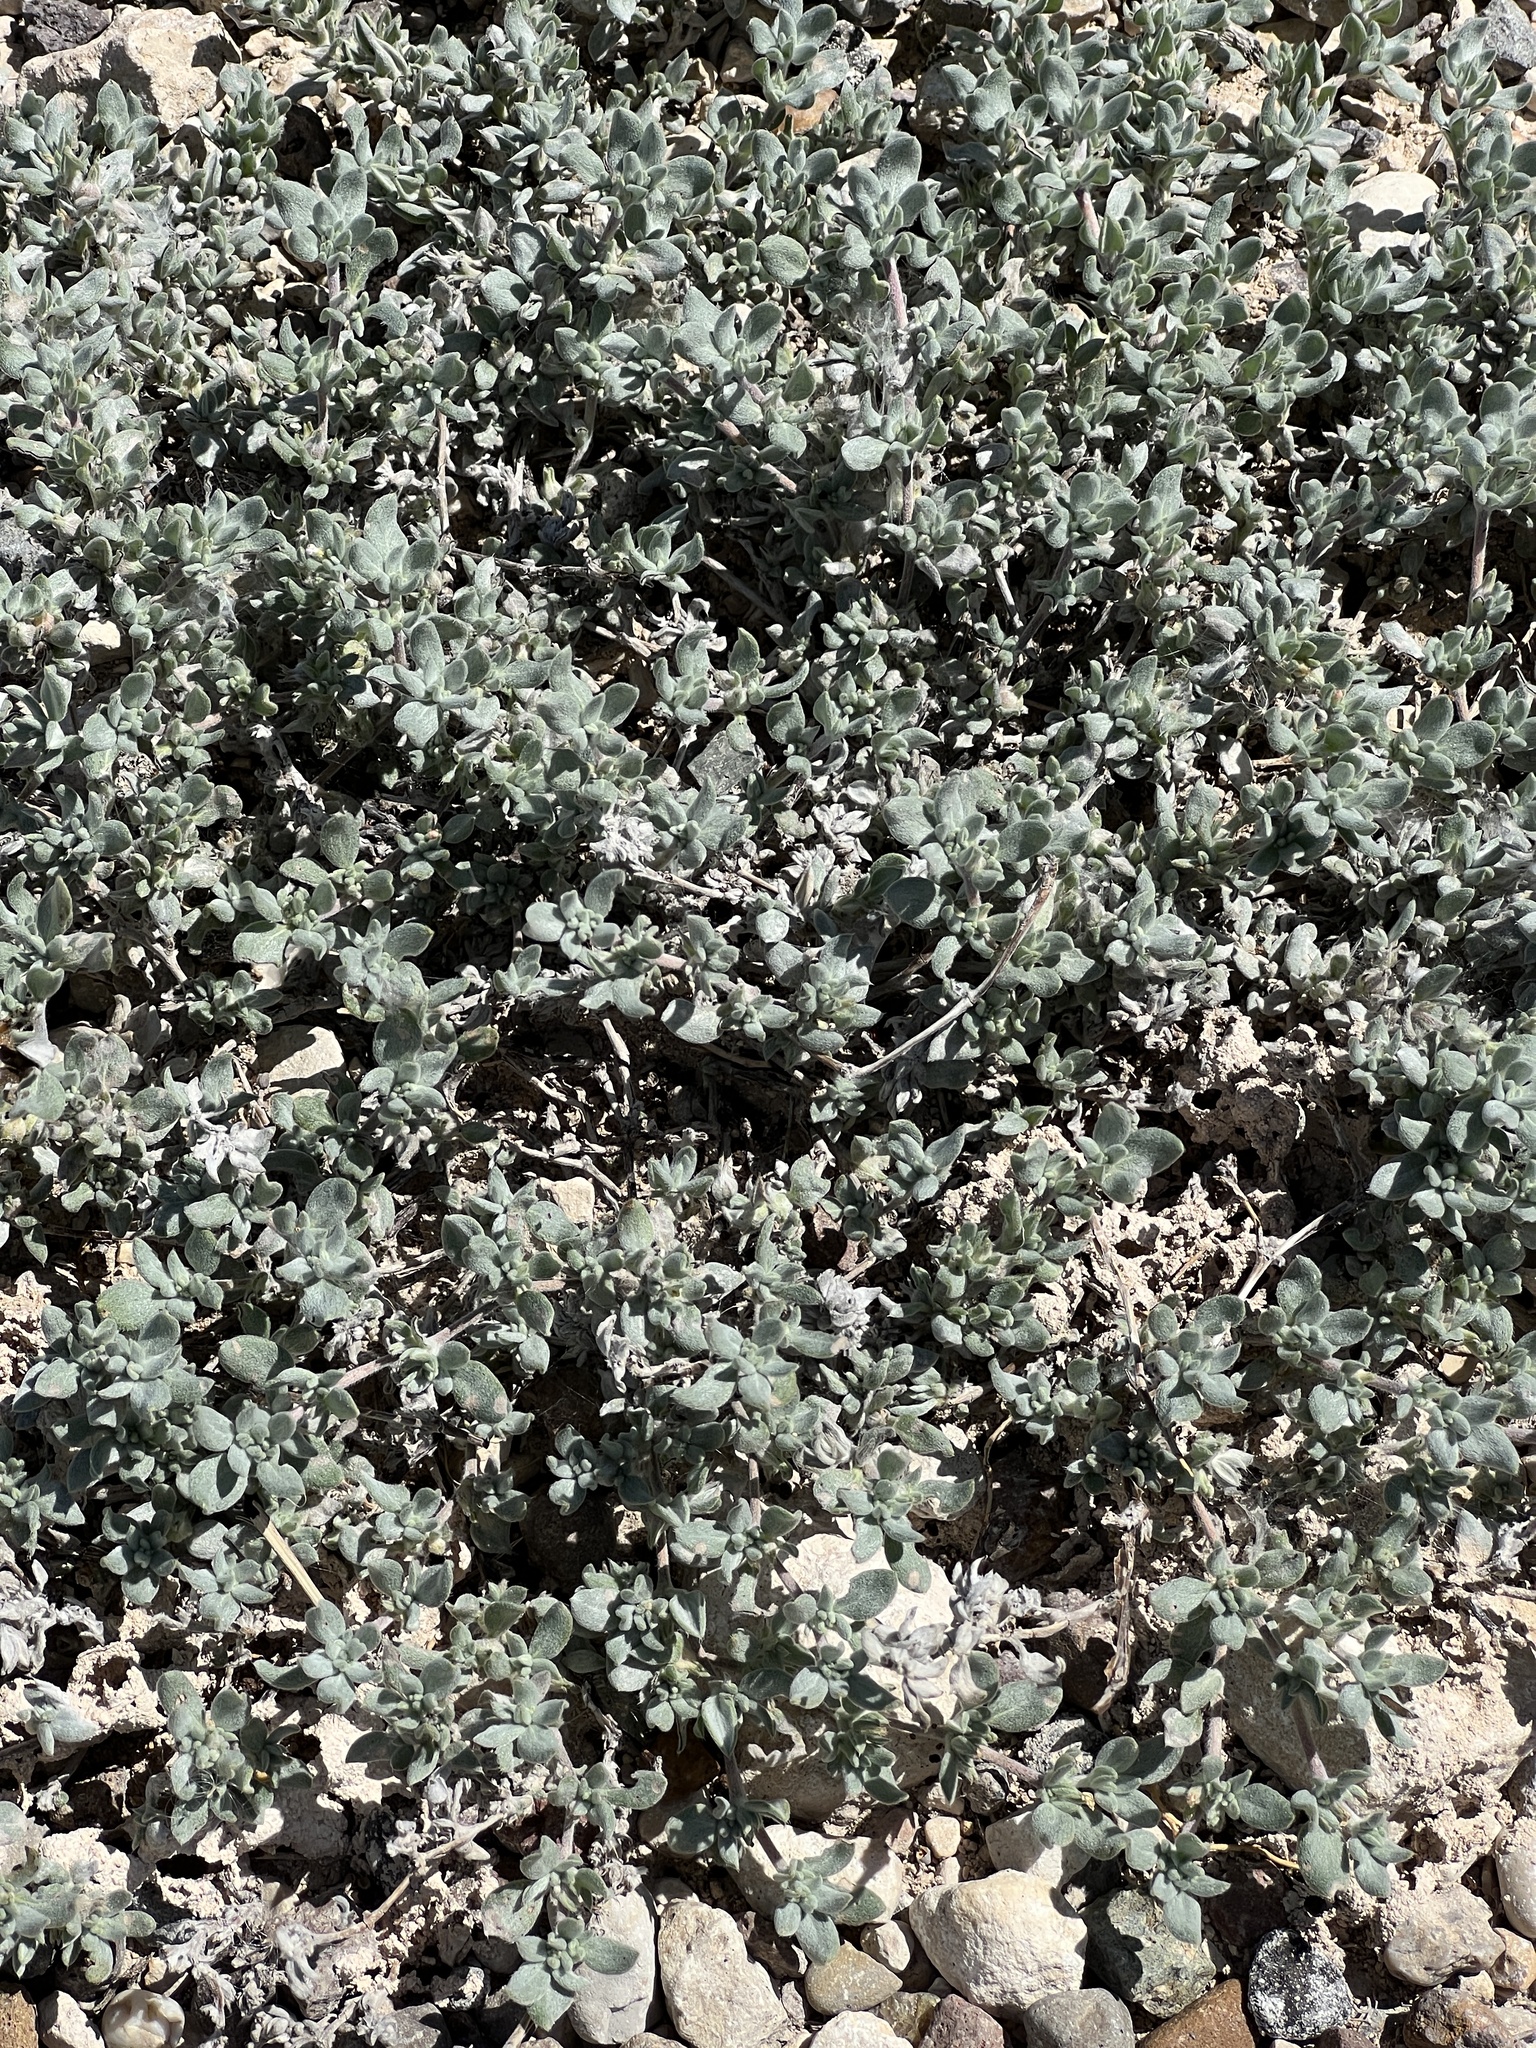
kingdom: Plantae
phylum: Tracheophyta
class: Magnoliopsida
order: Boraginales
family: Ehretiaceae
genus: Tiquilia
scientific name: Tiquilia canescens
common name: Hairy tiquilia
